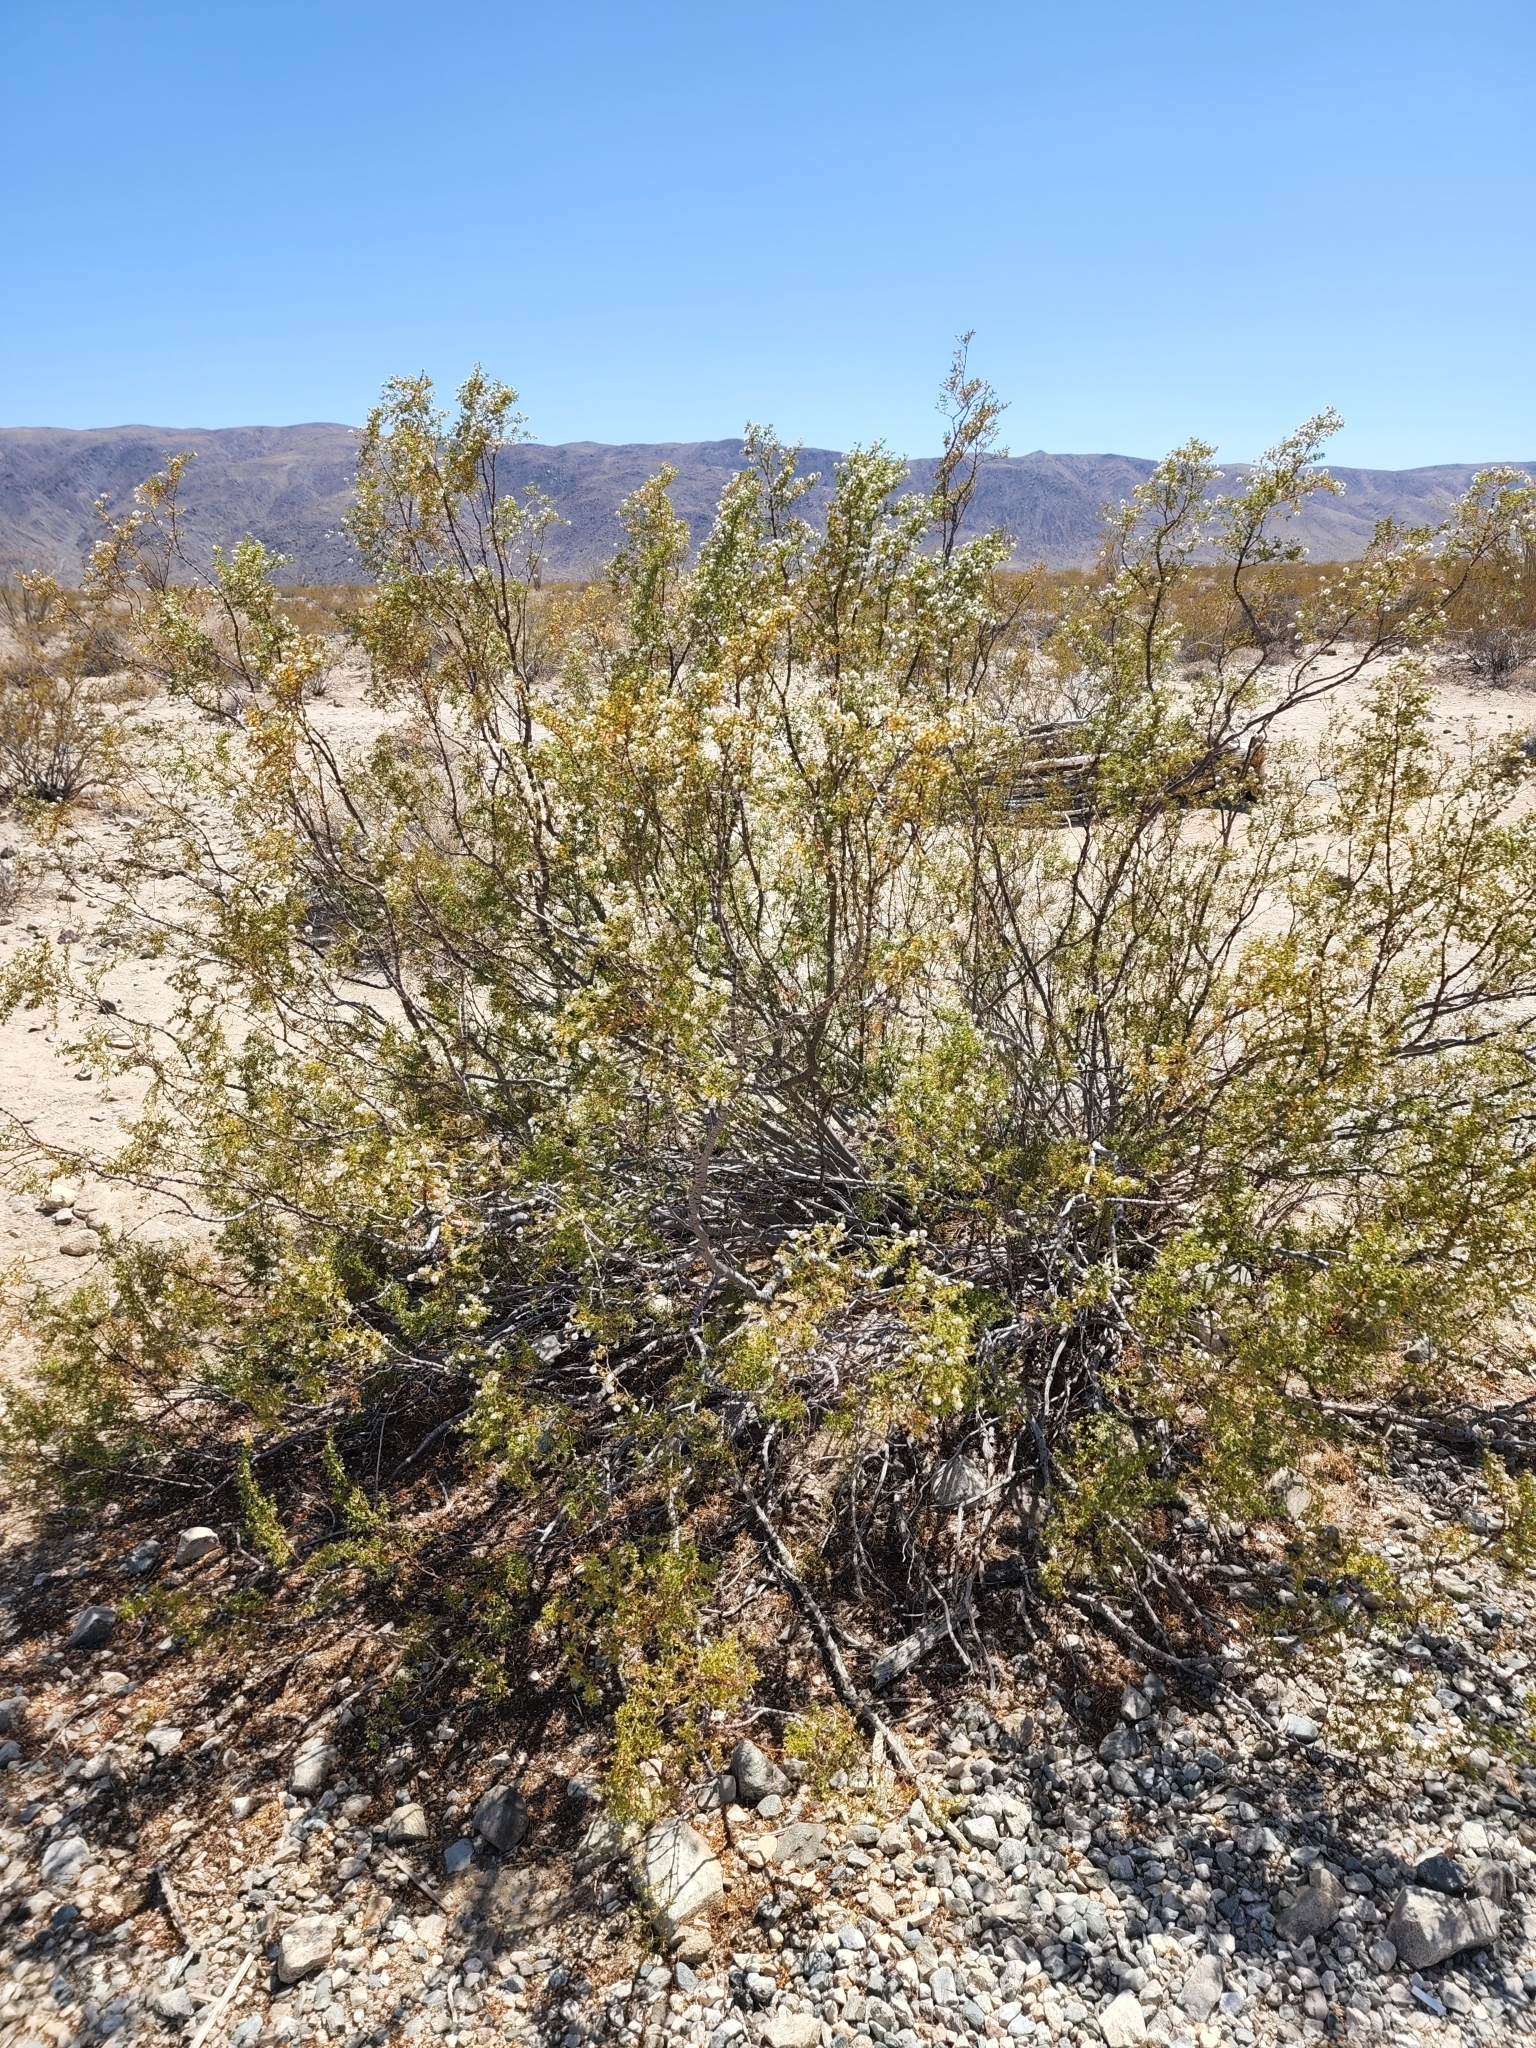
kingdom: Plantae
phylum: Tracheophyta
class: Magnoliopsida
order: Zygophyllales
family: Zygophyllaceae
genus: Larrea
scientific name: Larrea tridentata
